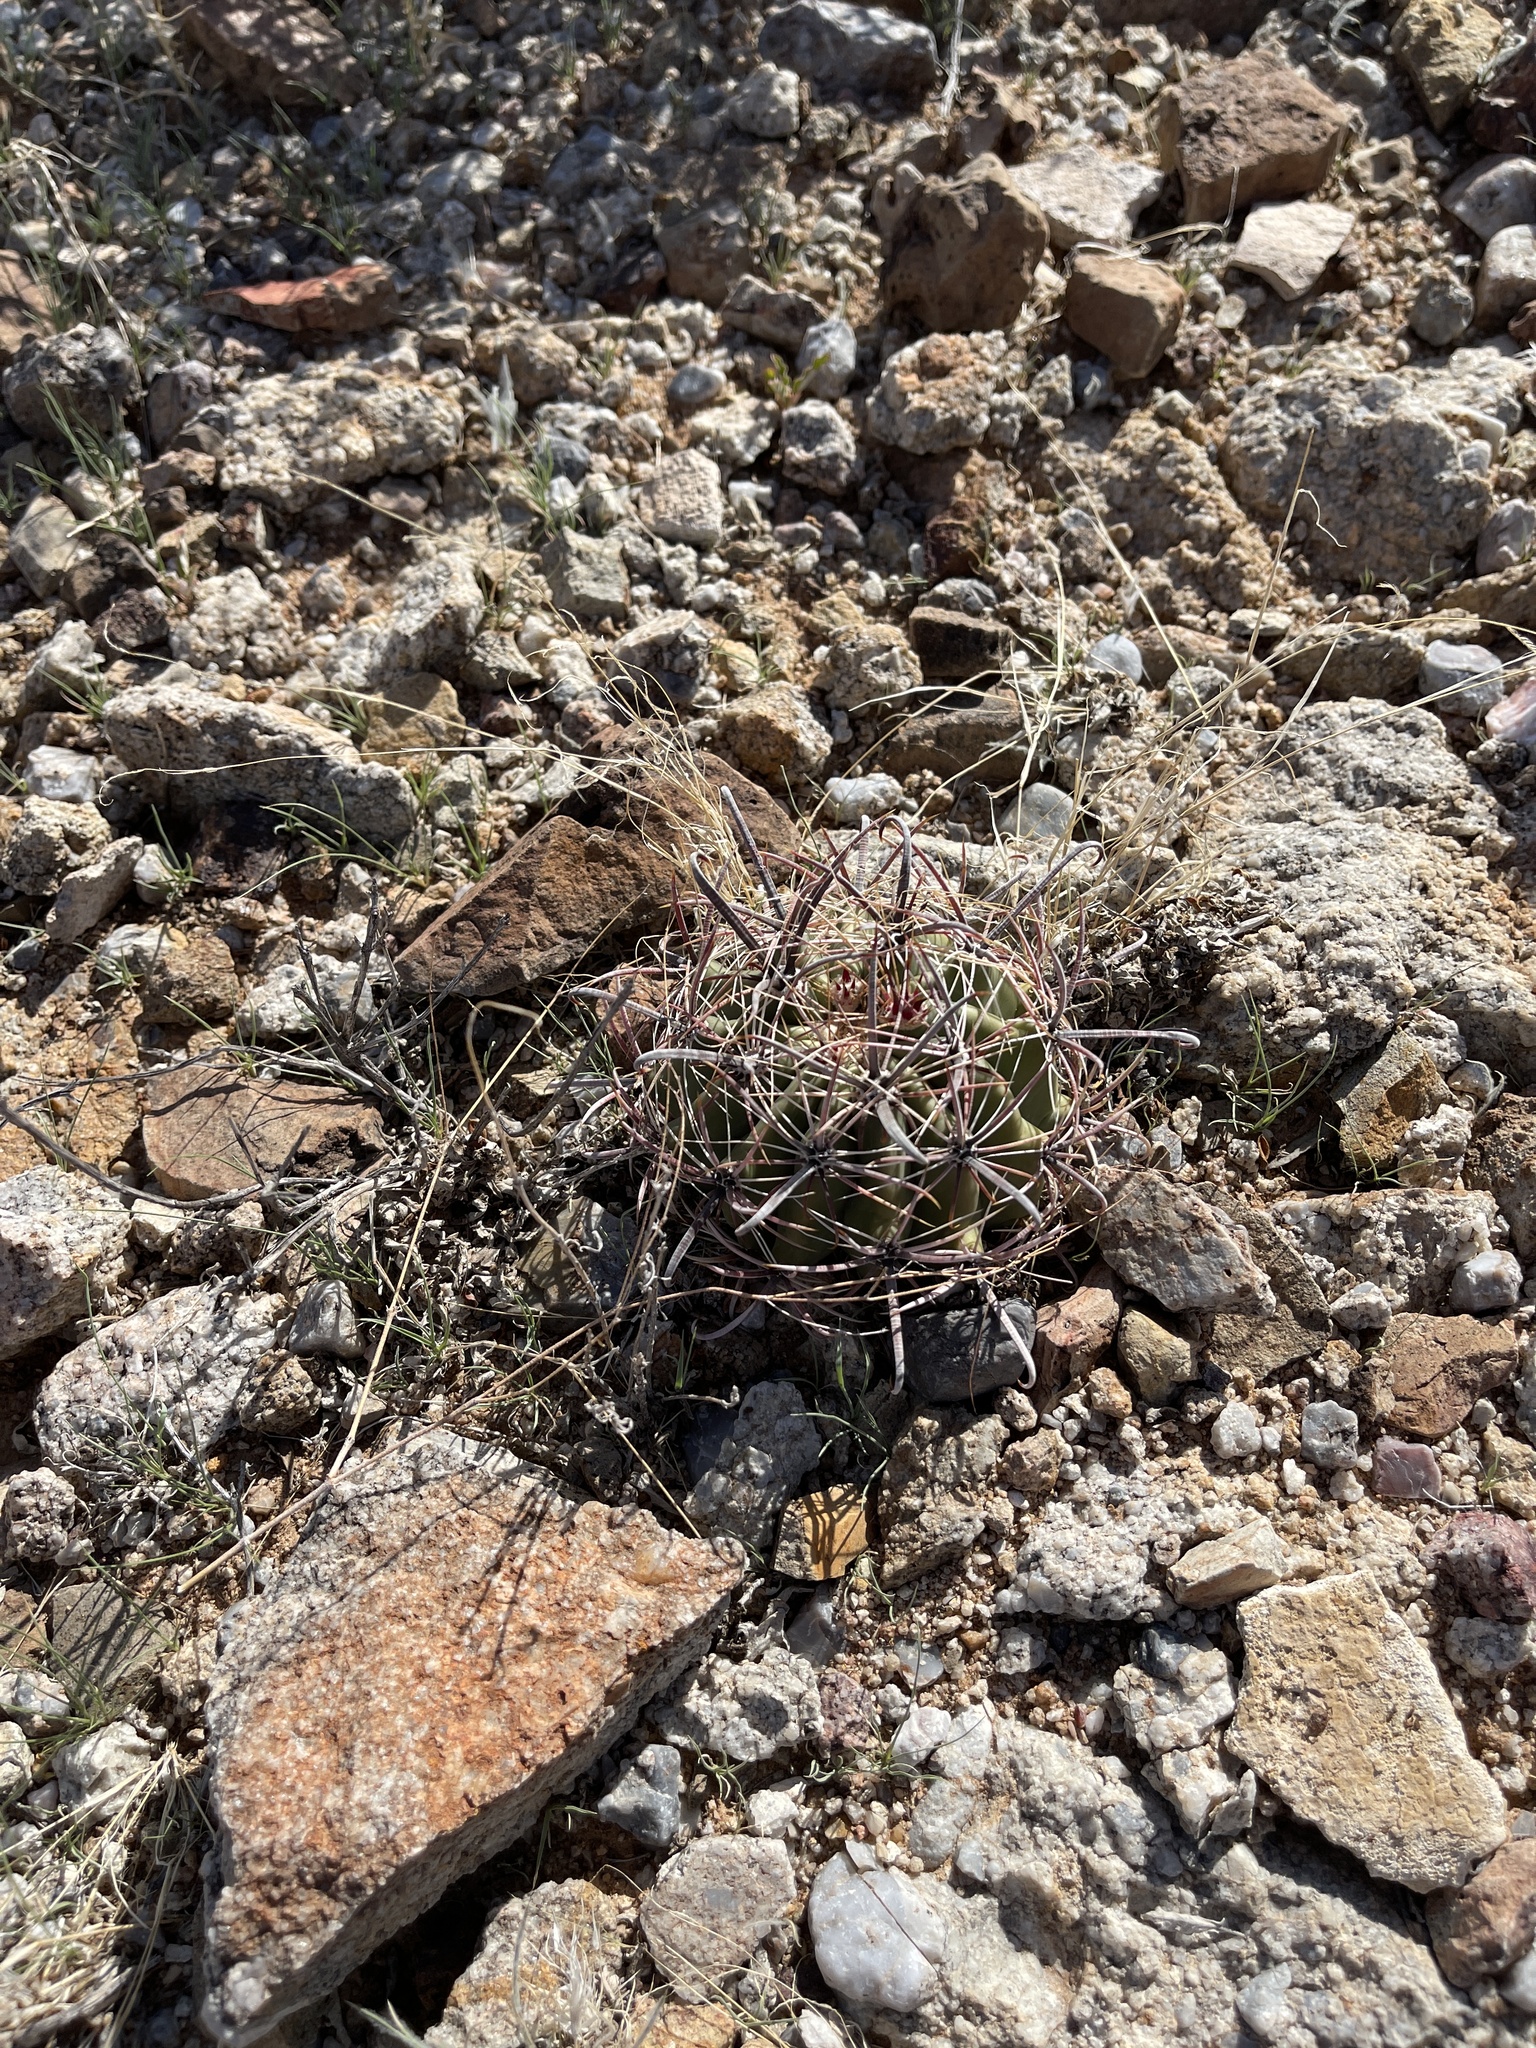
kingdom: Plantae
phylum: Tracheophyta
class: Magnoliopsida
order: Caryophyllales
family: Cactaceae
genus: Ferocactus
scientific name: Ferocactus wislizeni
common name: Candy barrel cactus
